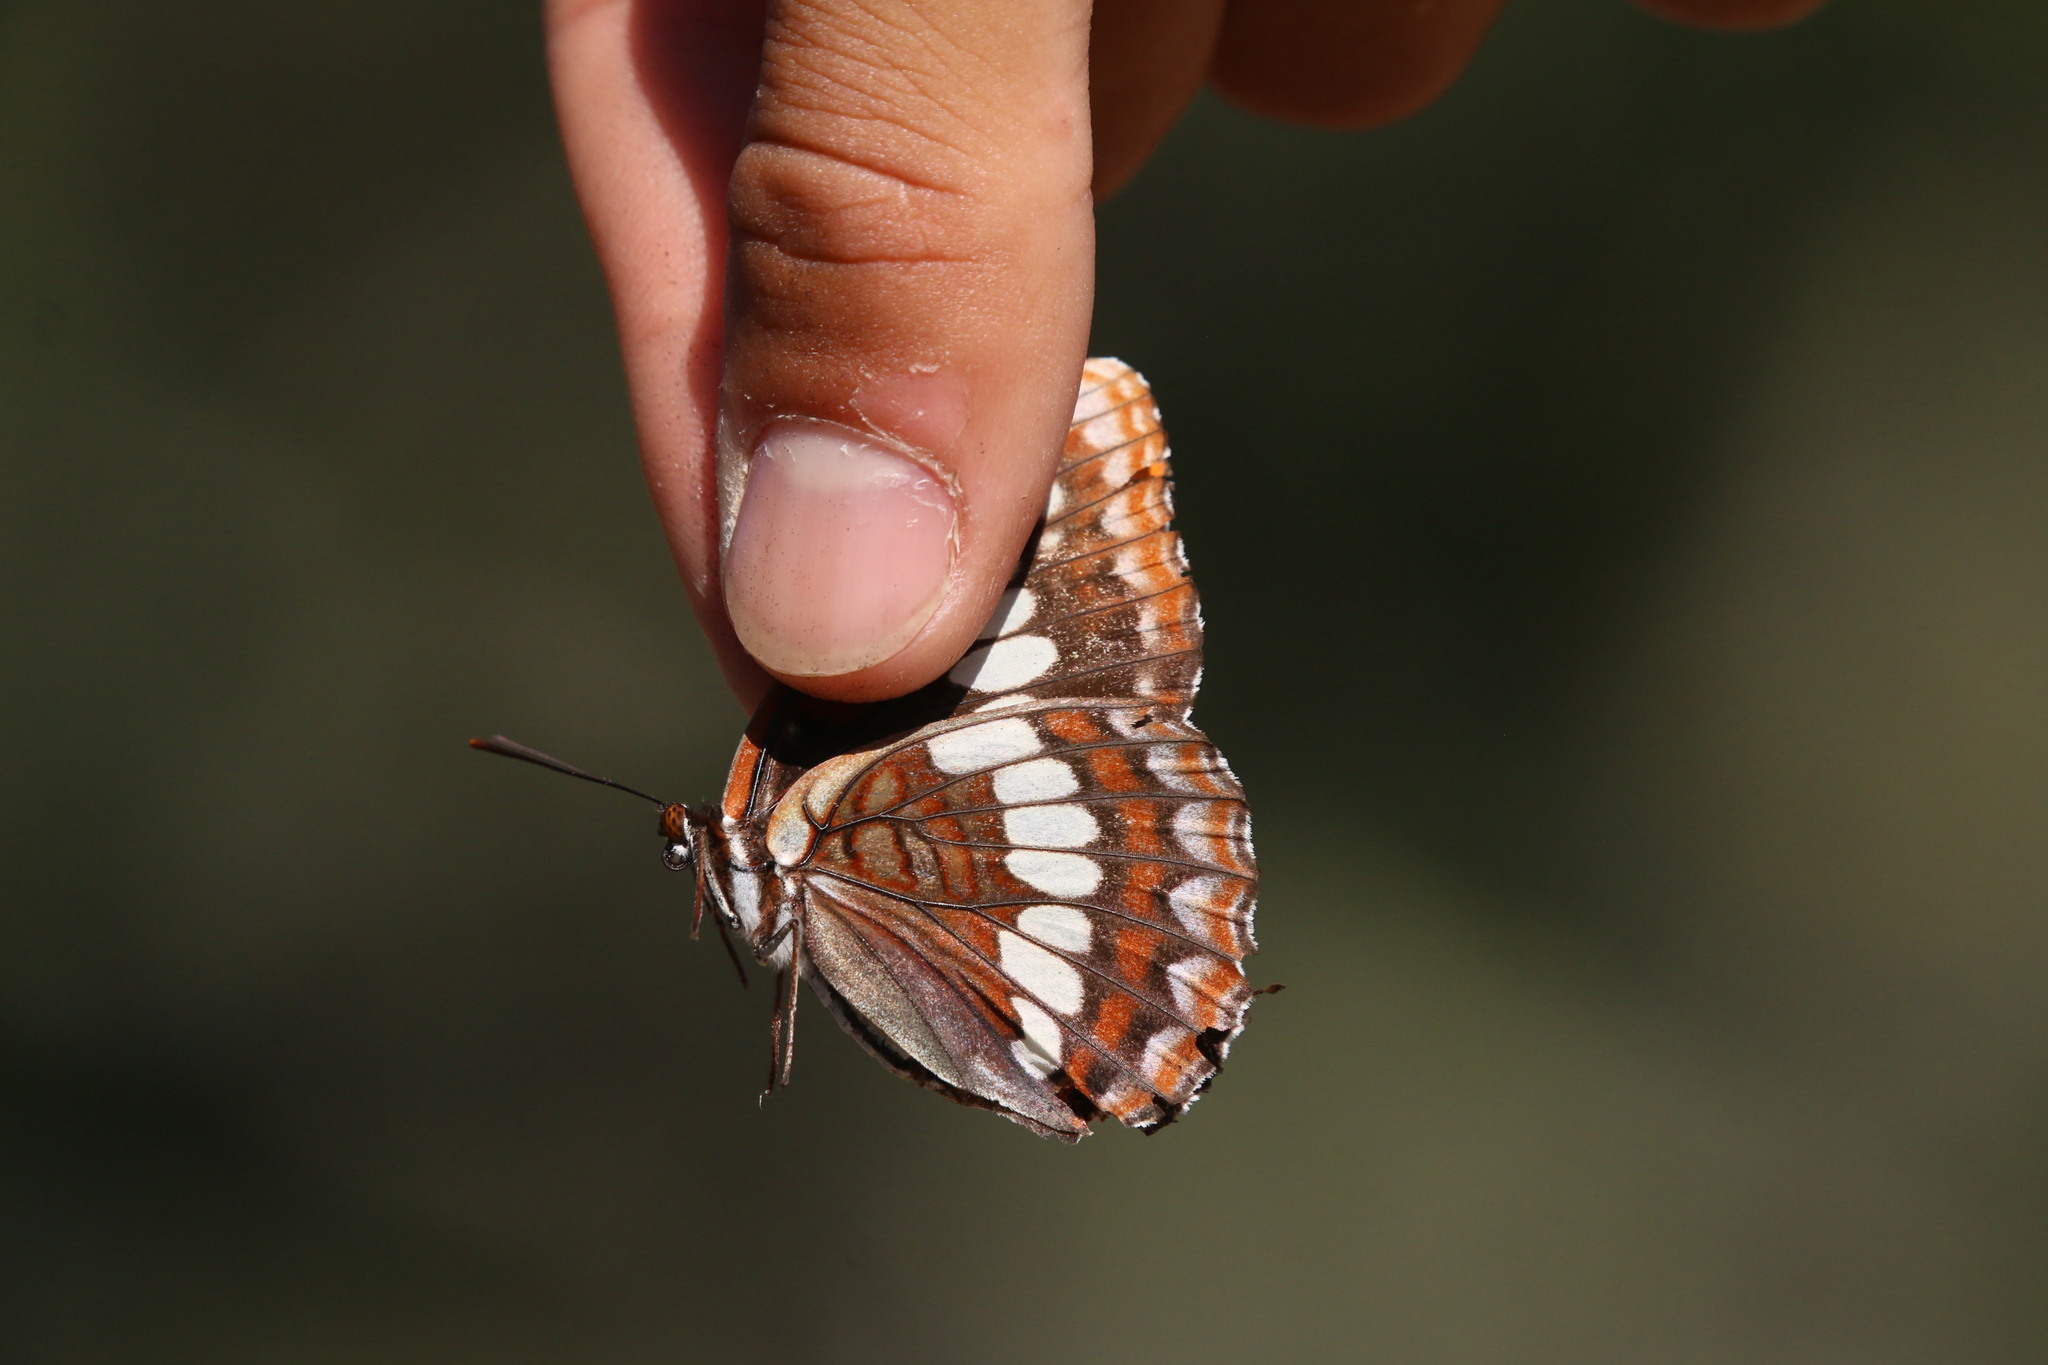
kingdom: Animalia
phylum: Arthropoda
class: Insecta
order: Lepidoptera
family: Nymphalidae
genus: Limenitis
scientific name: Limenitis lorquini
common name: Lorquin's admiral
